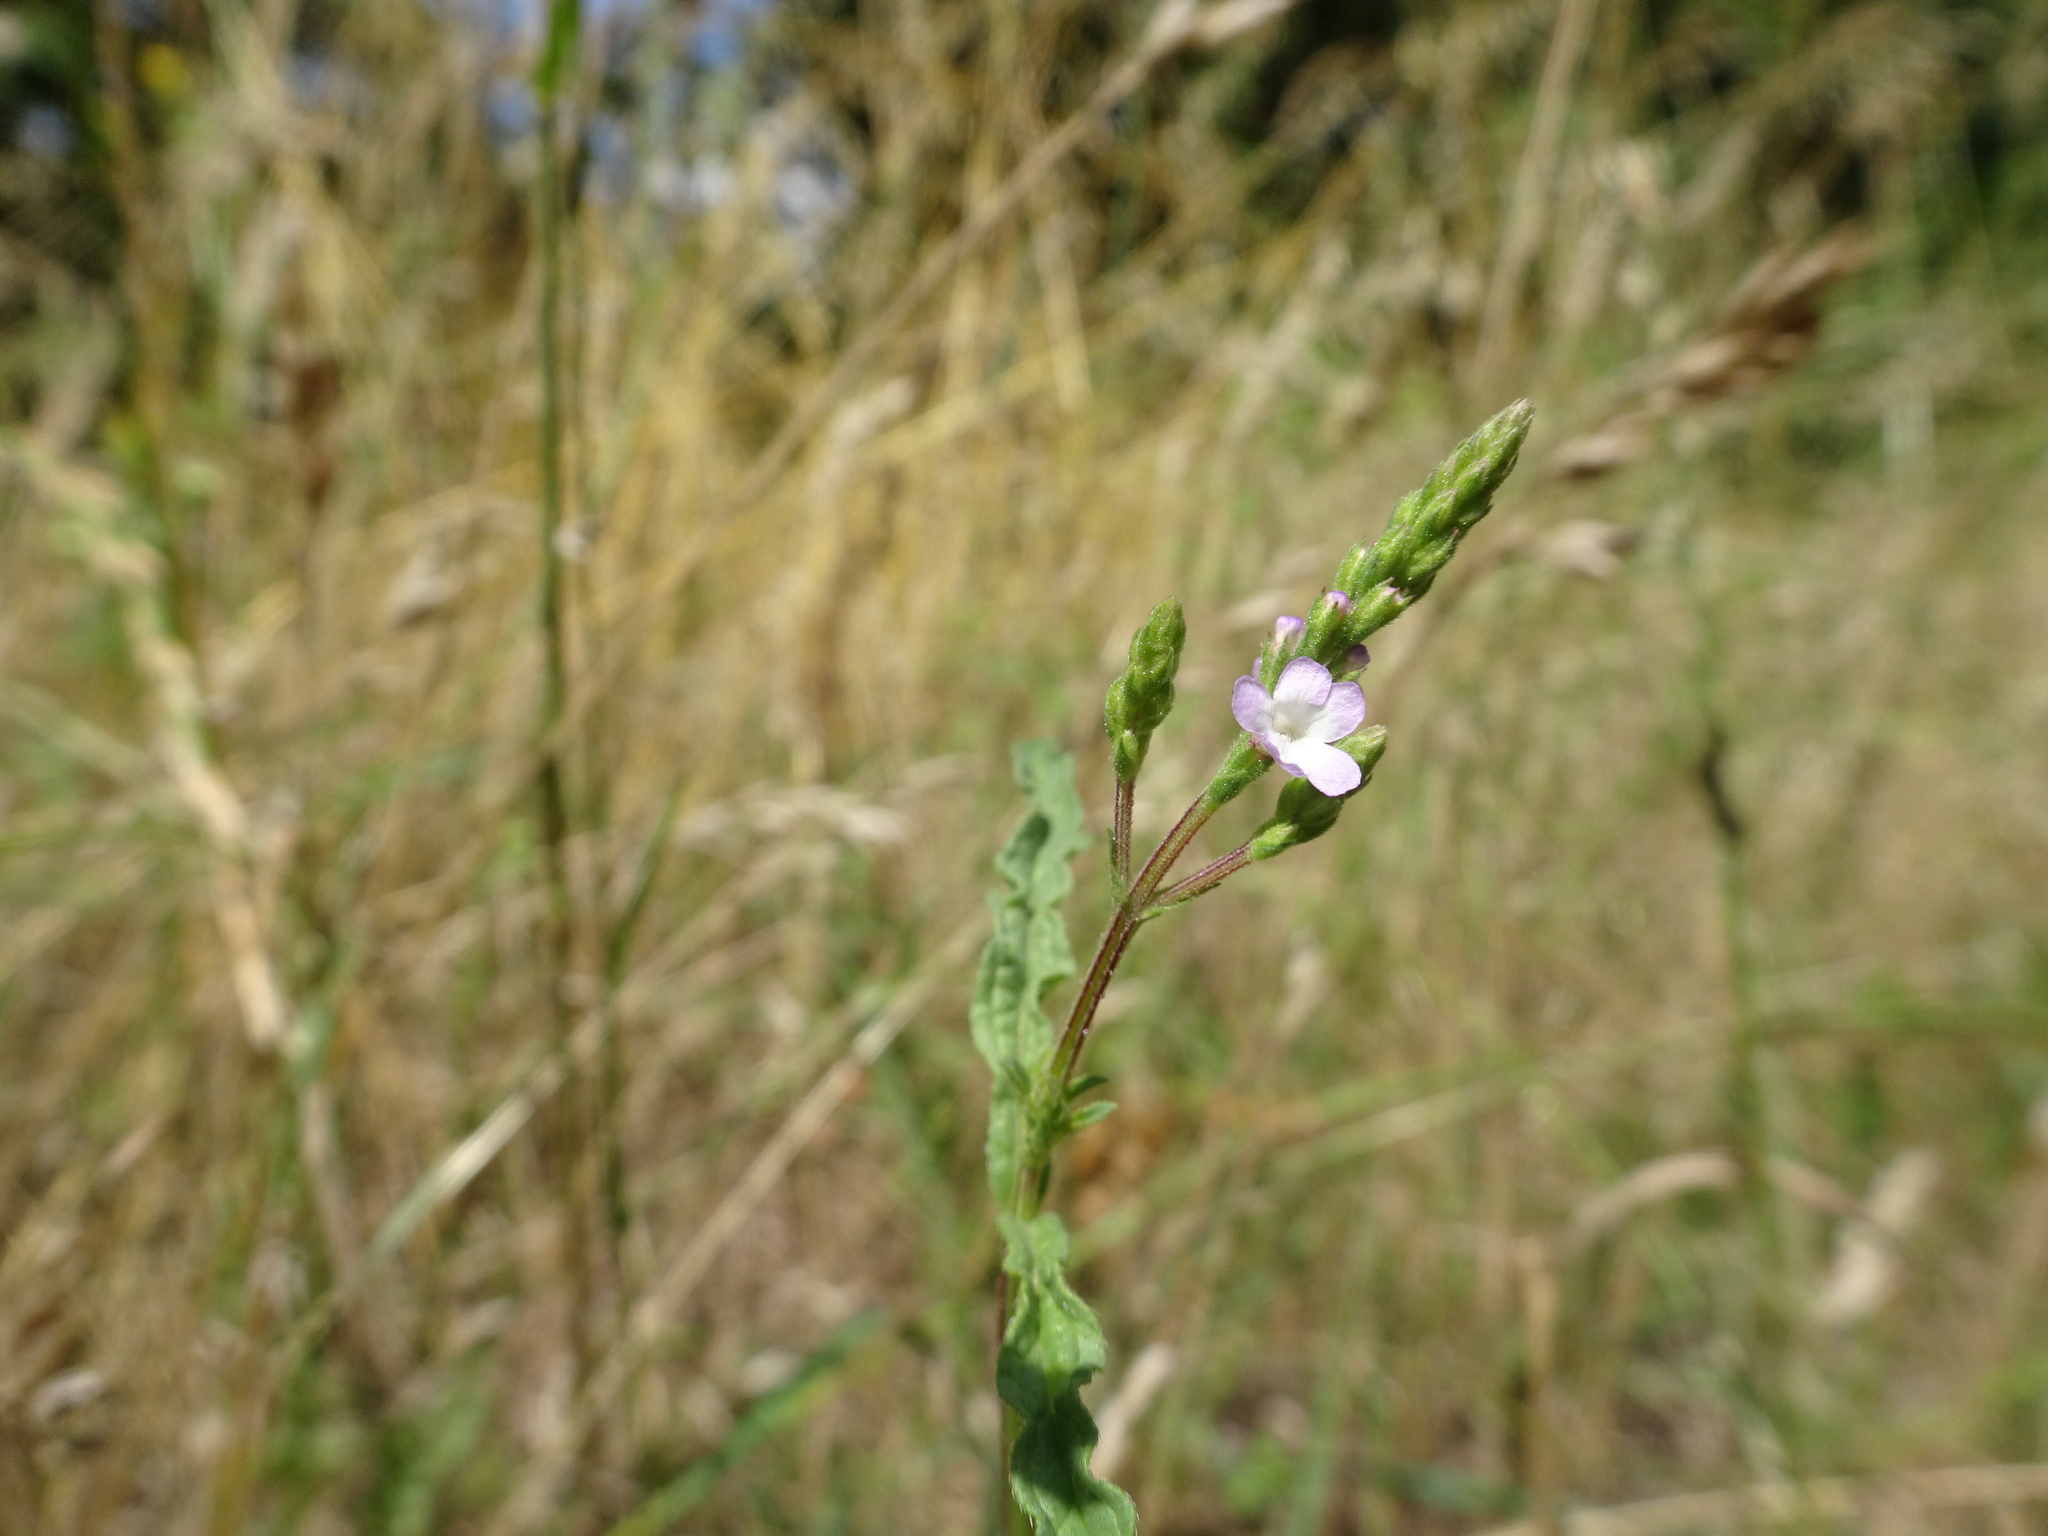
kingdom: Plantae
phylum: Tracheophyta
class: Magnoliopsida
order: Lamiales
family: Verbenaceae
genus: Verbena
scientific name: Verbena officinalis
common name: Vervain
